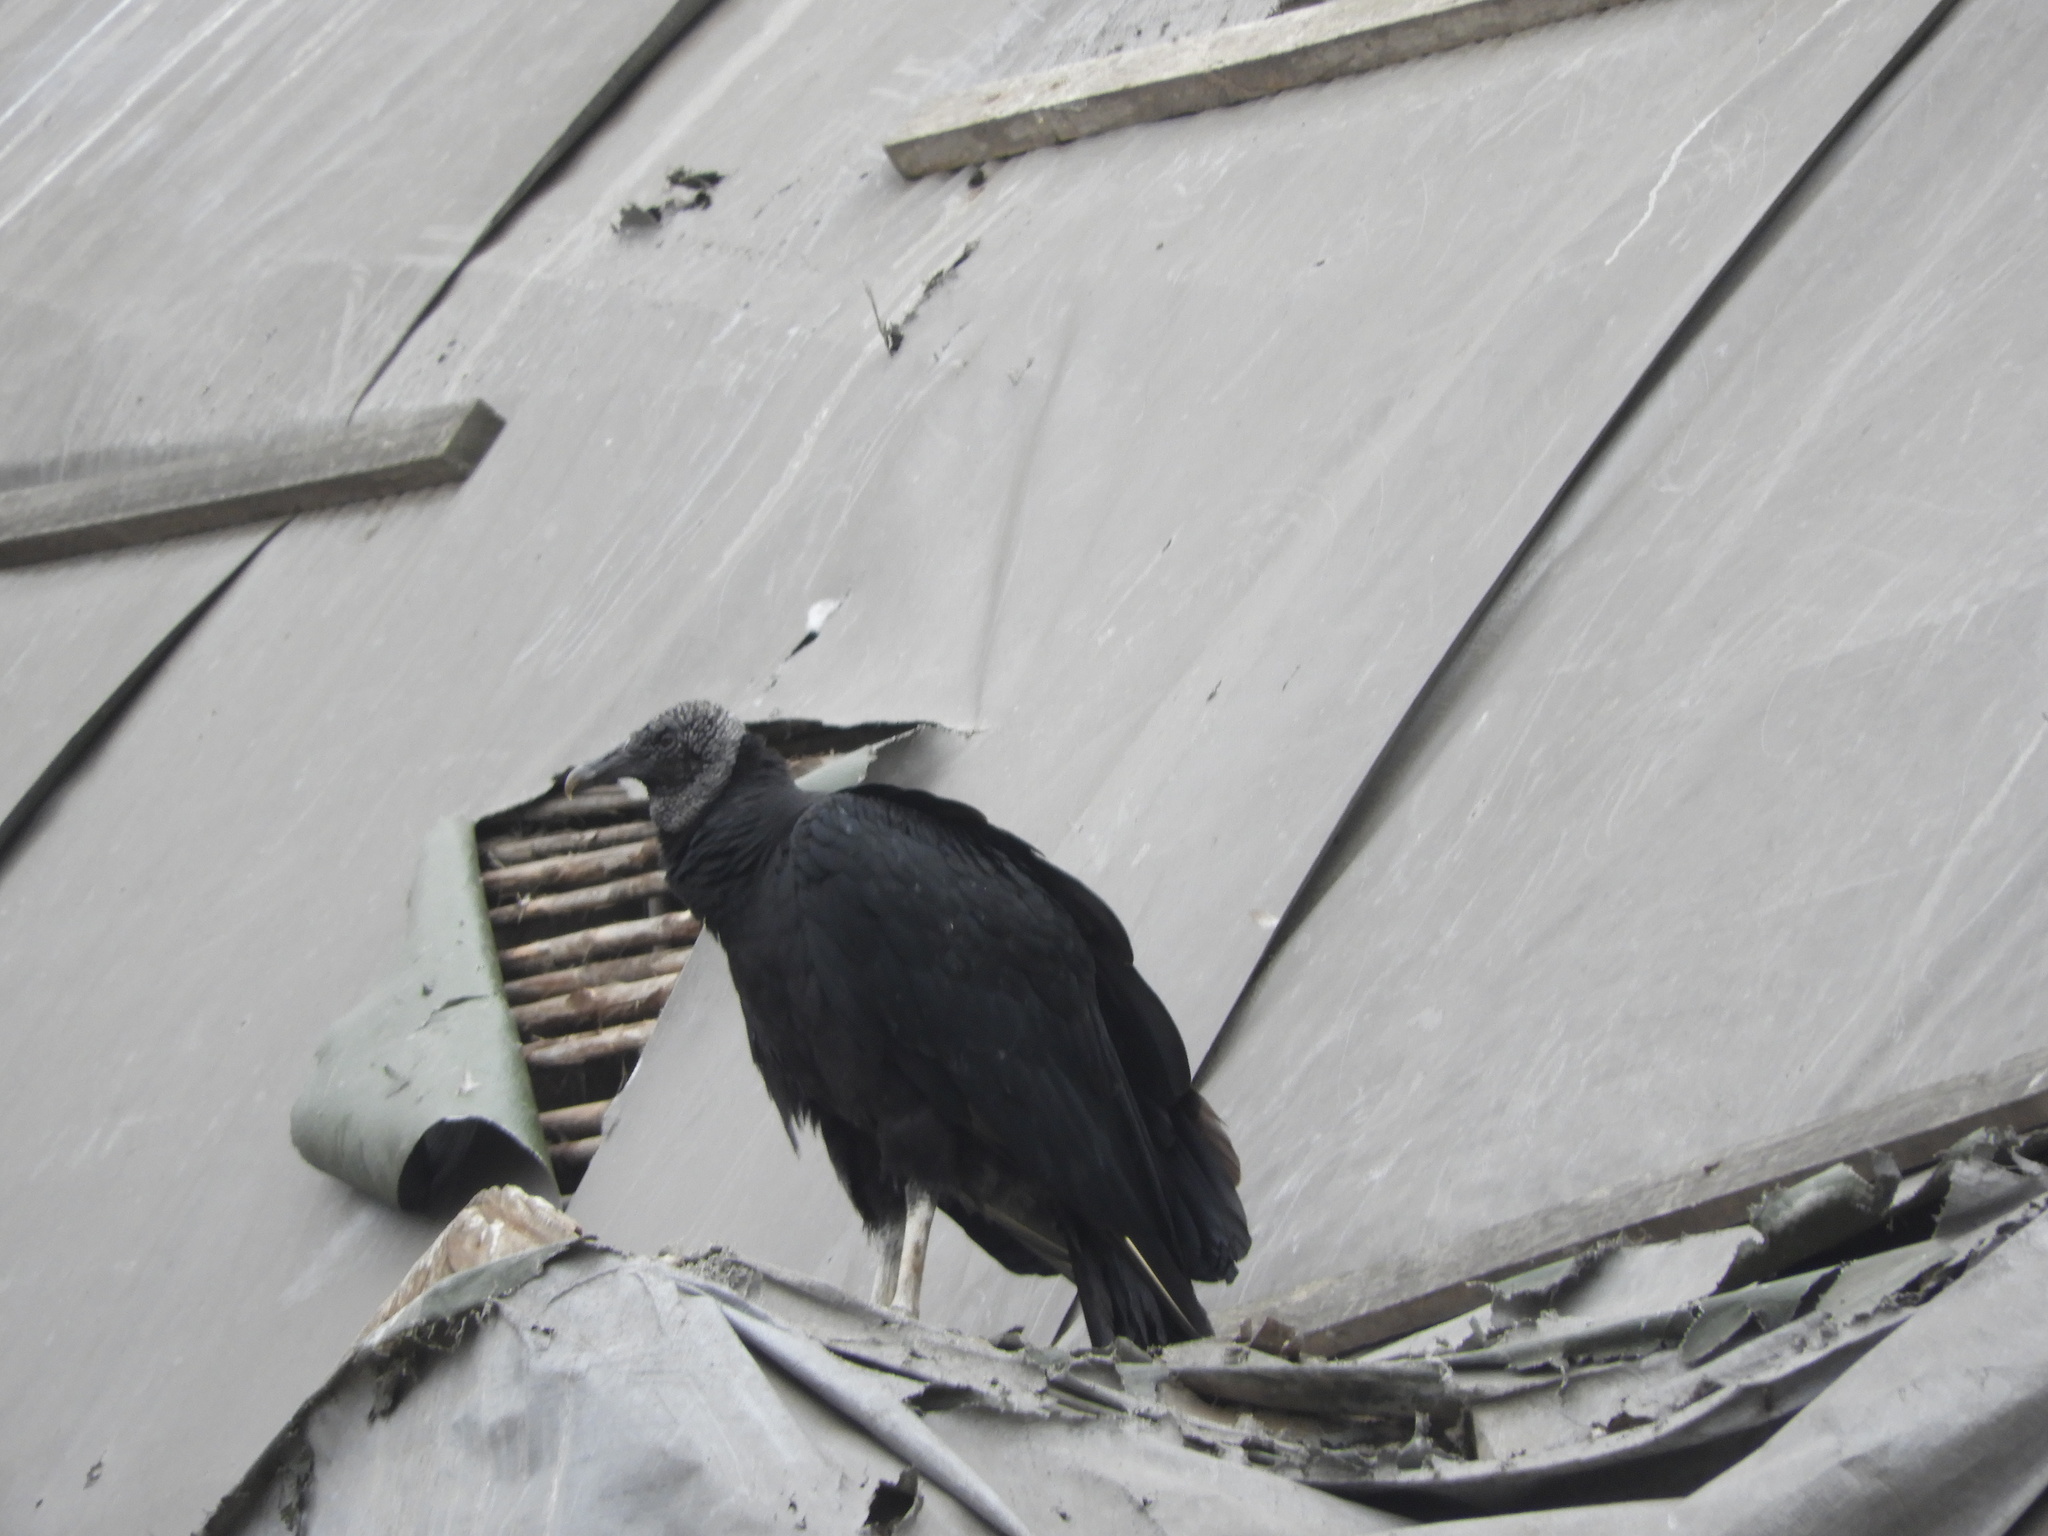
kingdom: Animalia
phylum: Chordata
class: Aves
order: Accipitriformes
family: Cathartidae
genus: Coragyps
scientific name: Coragyps atratus
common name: Black vulture
